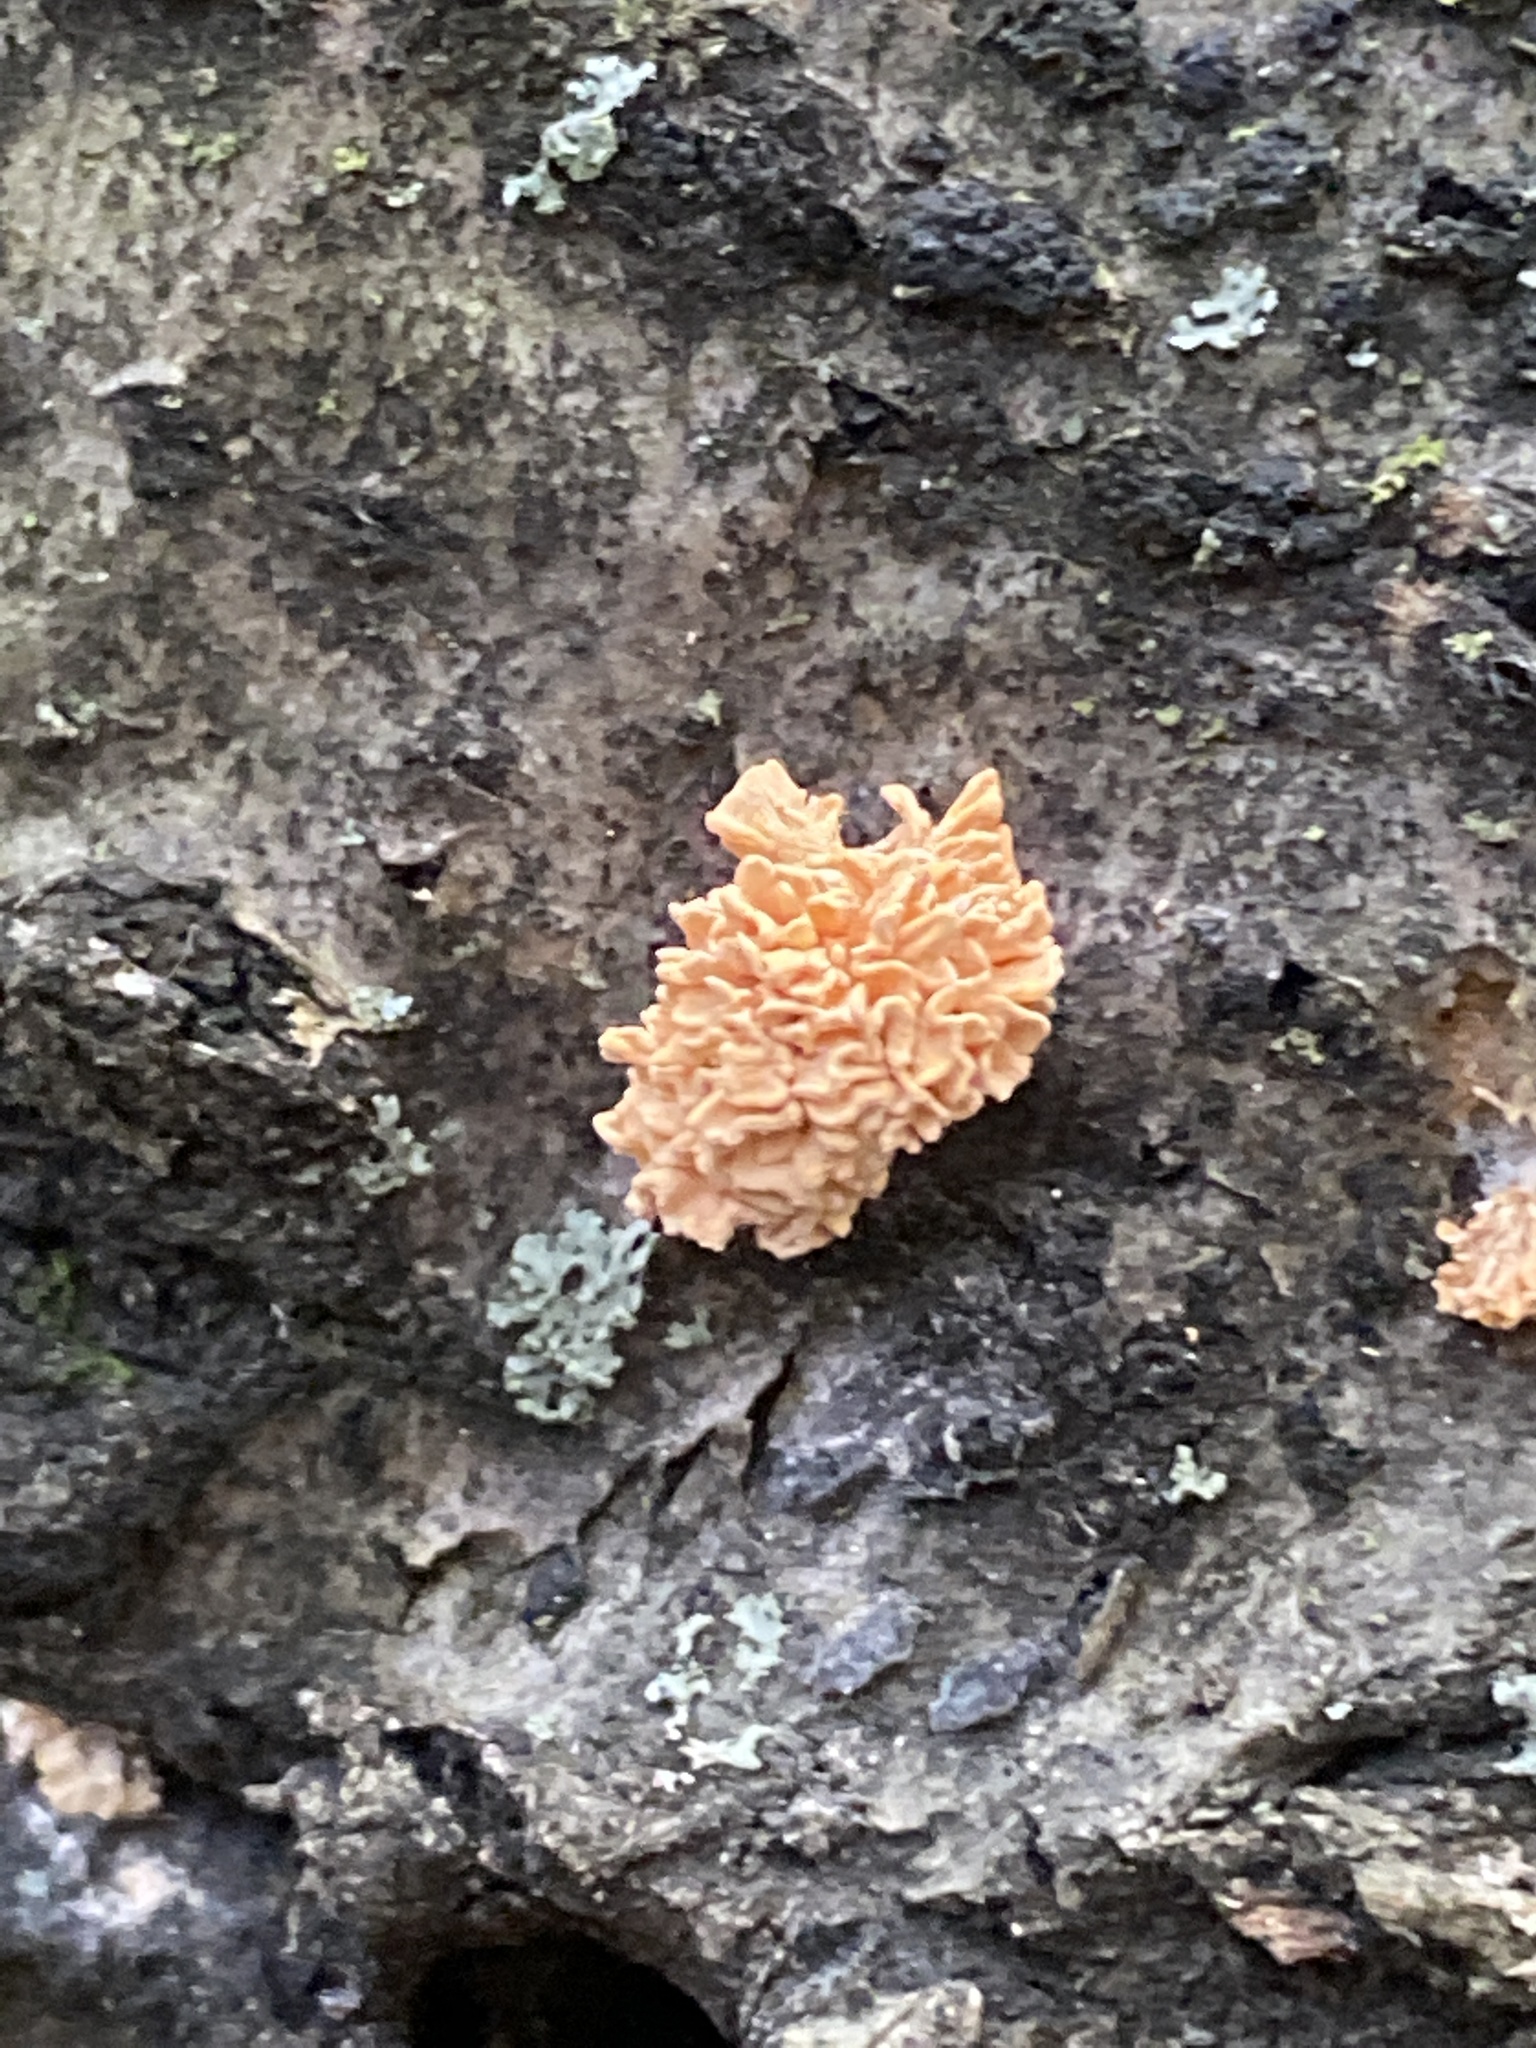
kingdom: Fungi
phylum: Ascomycota
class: Sordariomycetes
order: Xylariales
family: Xylariaceae
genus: Xylaria
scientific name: Xylaria cubensis
